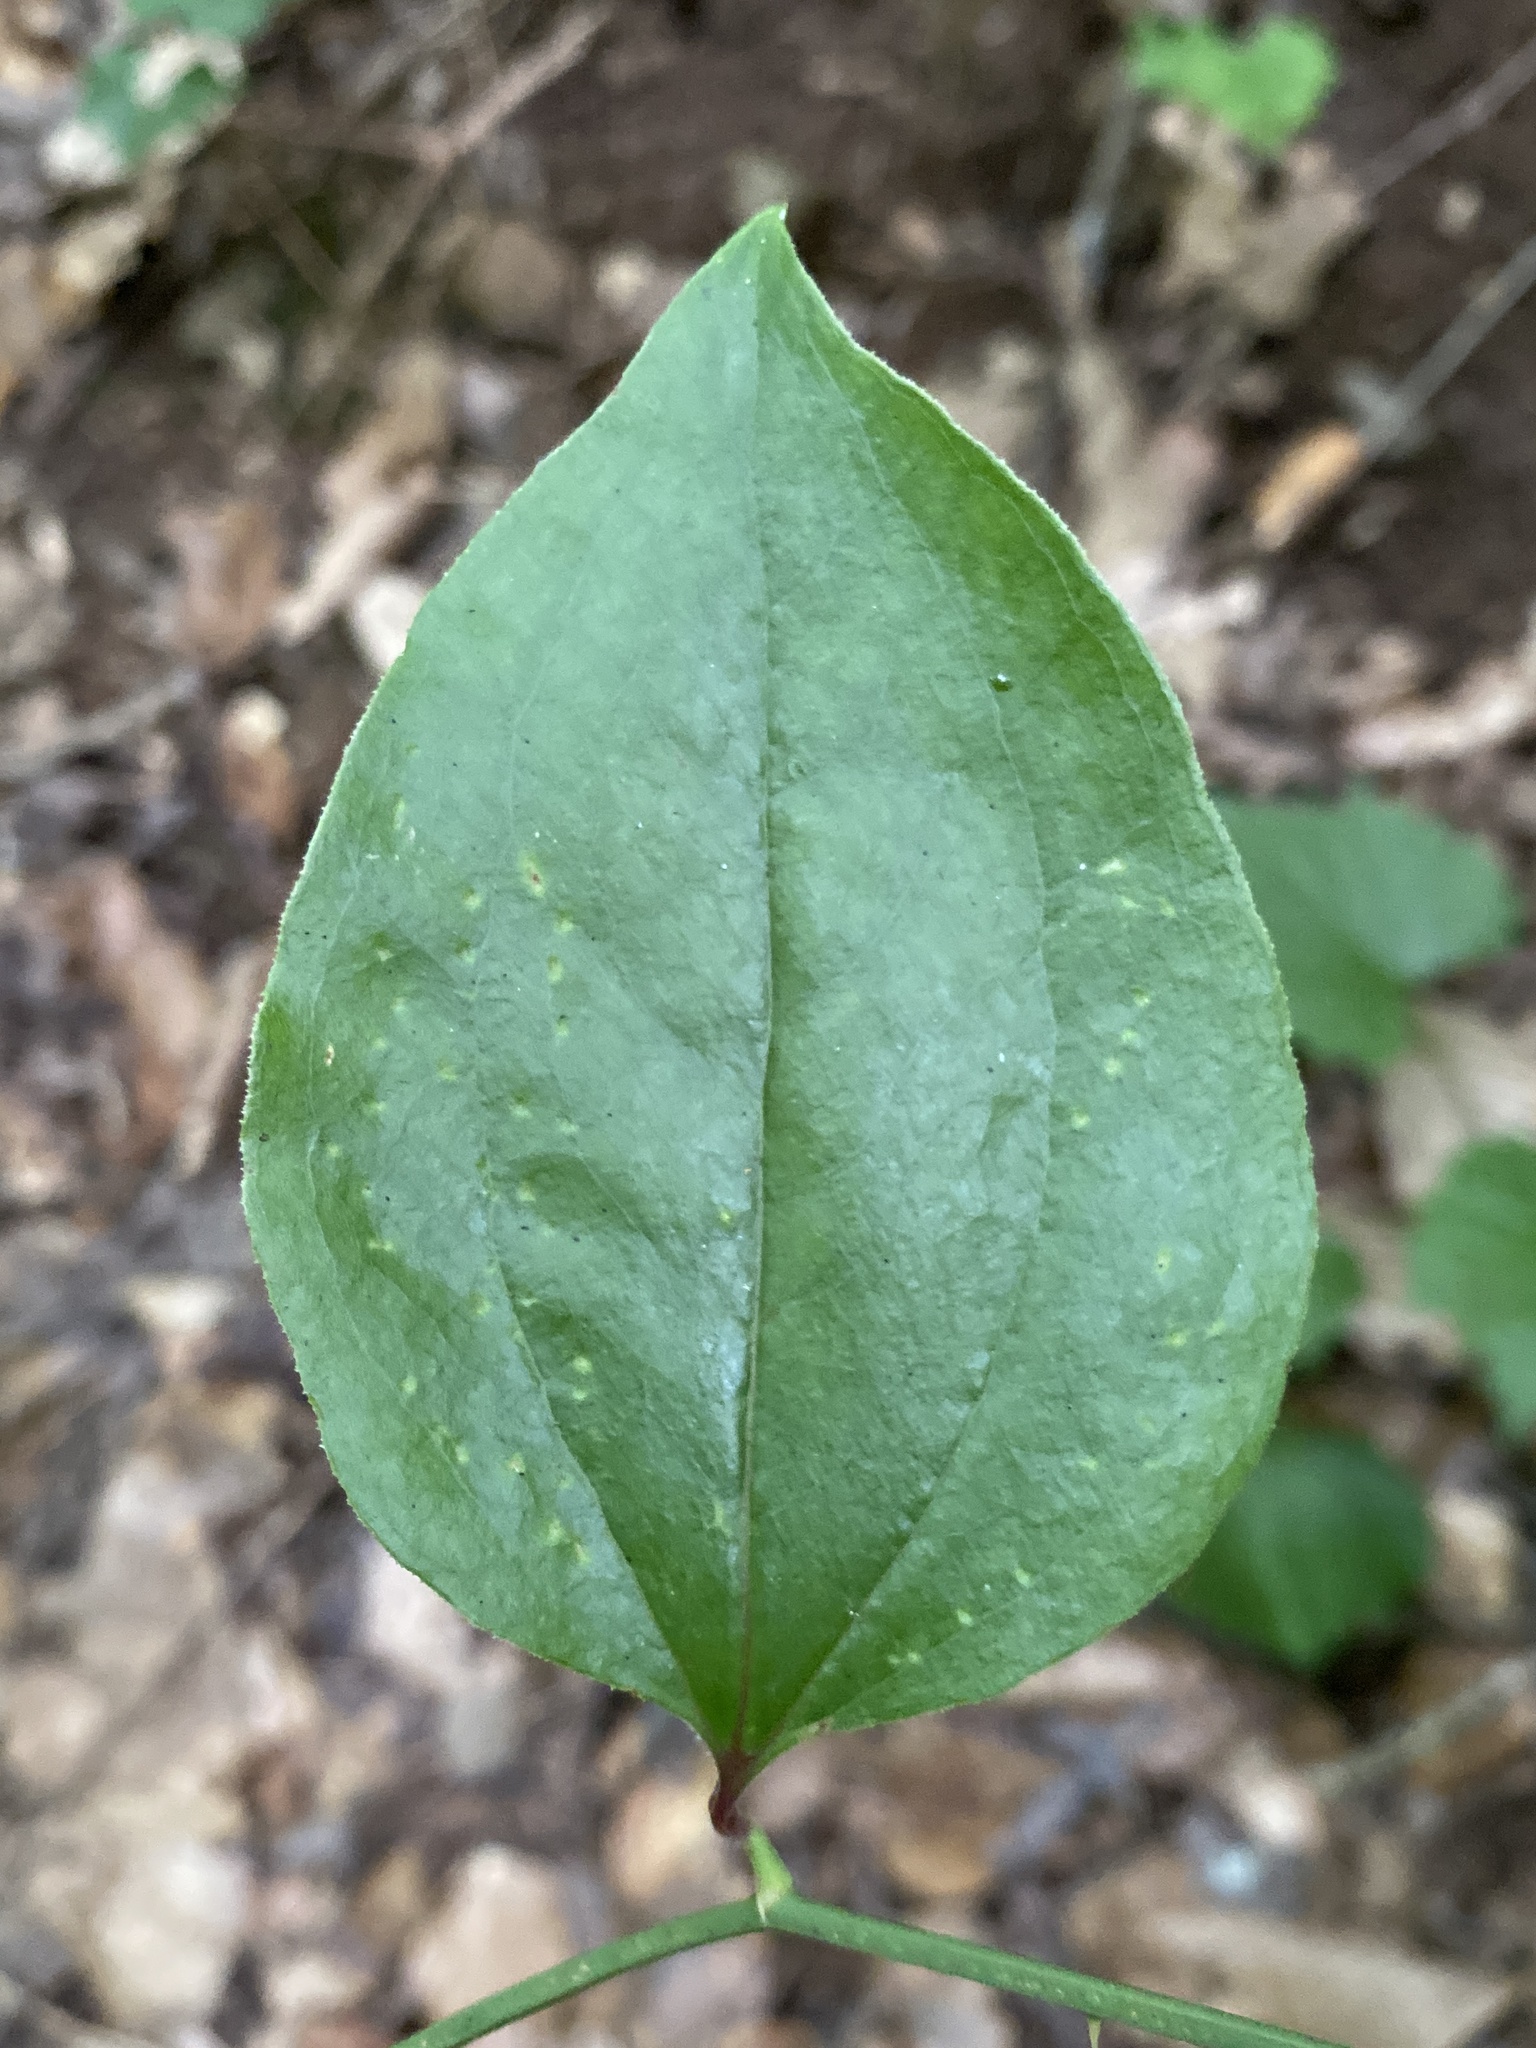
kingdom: Plantae
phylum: Tracheophyta
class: Liliopsida
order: Liliales
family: Smilacaceae
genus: Smilax
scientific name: Smilax rotundifolia
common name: Bullbriar
